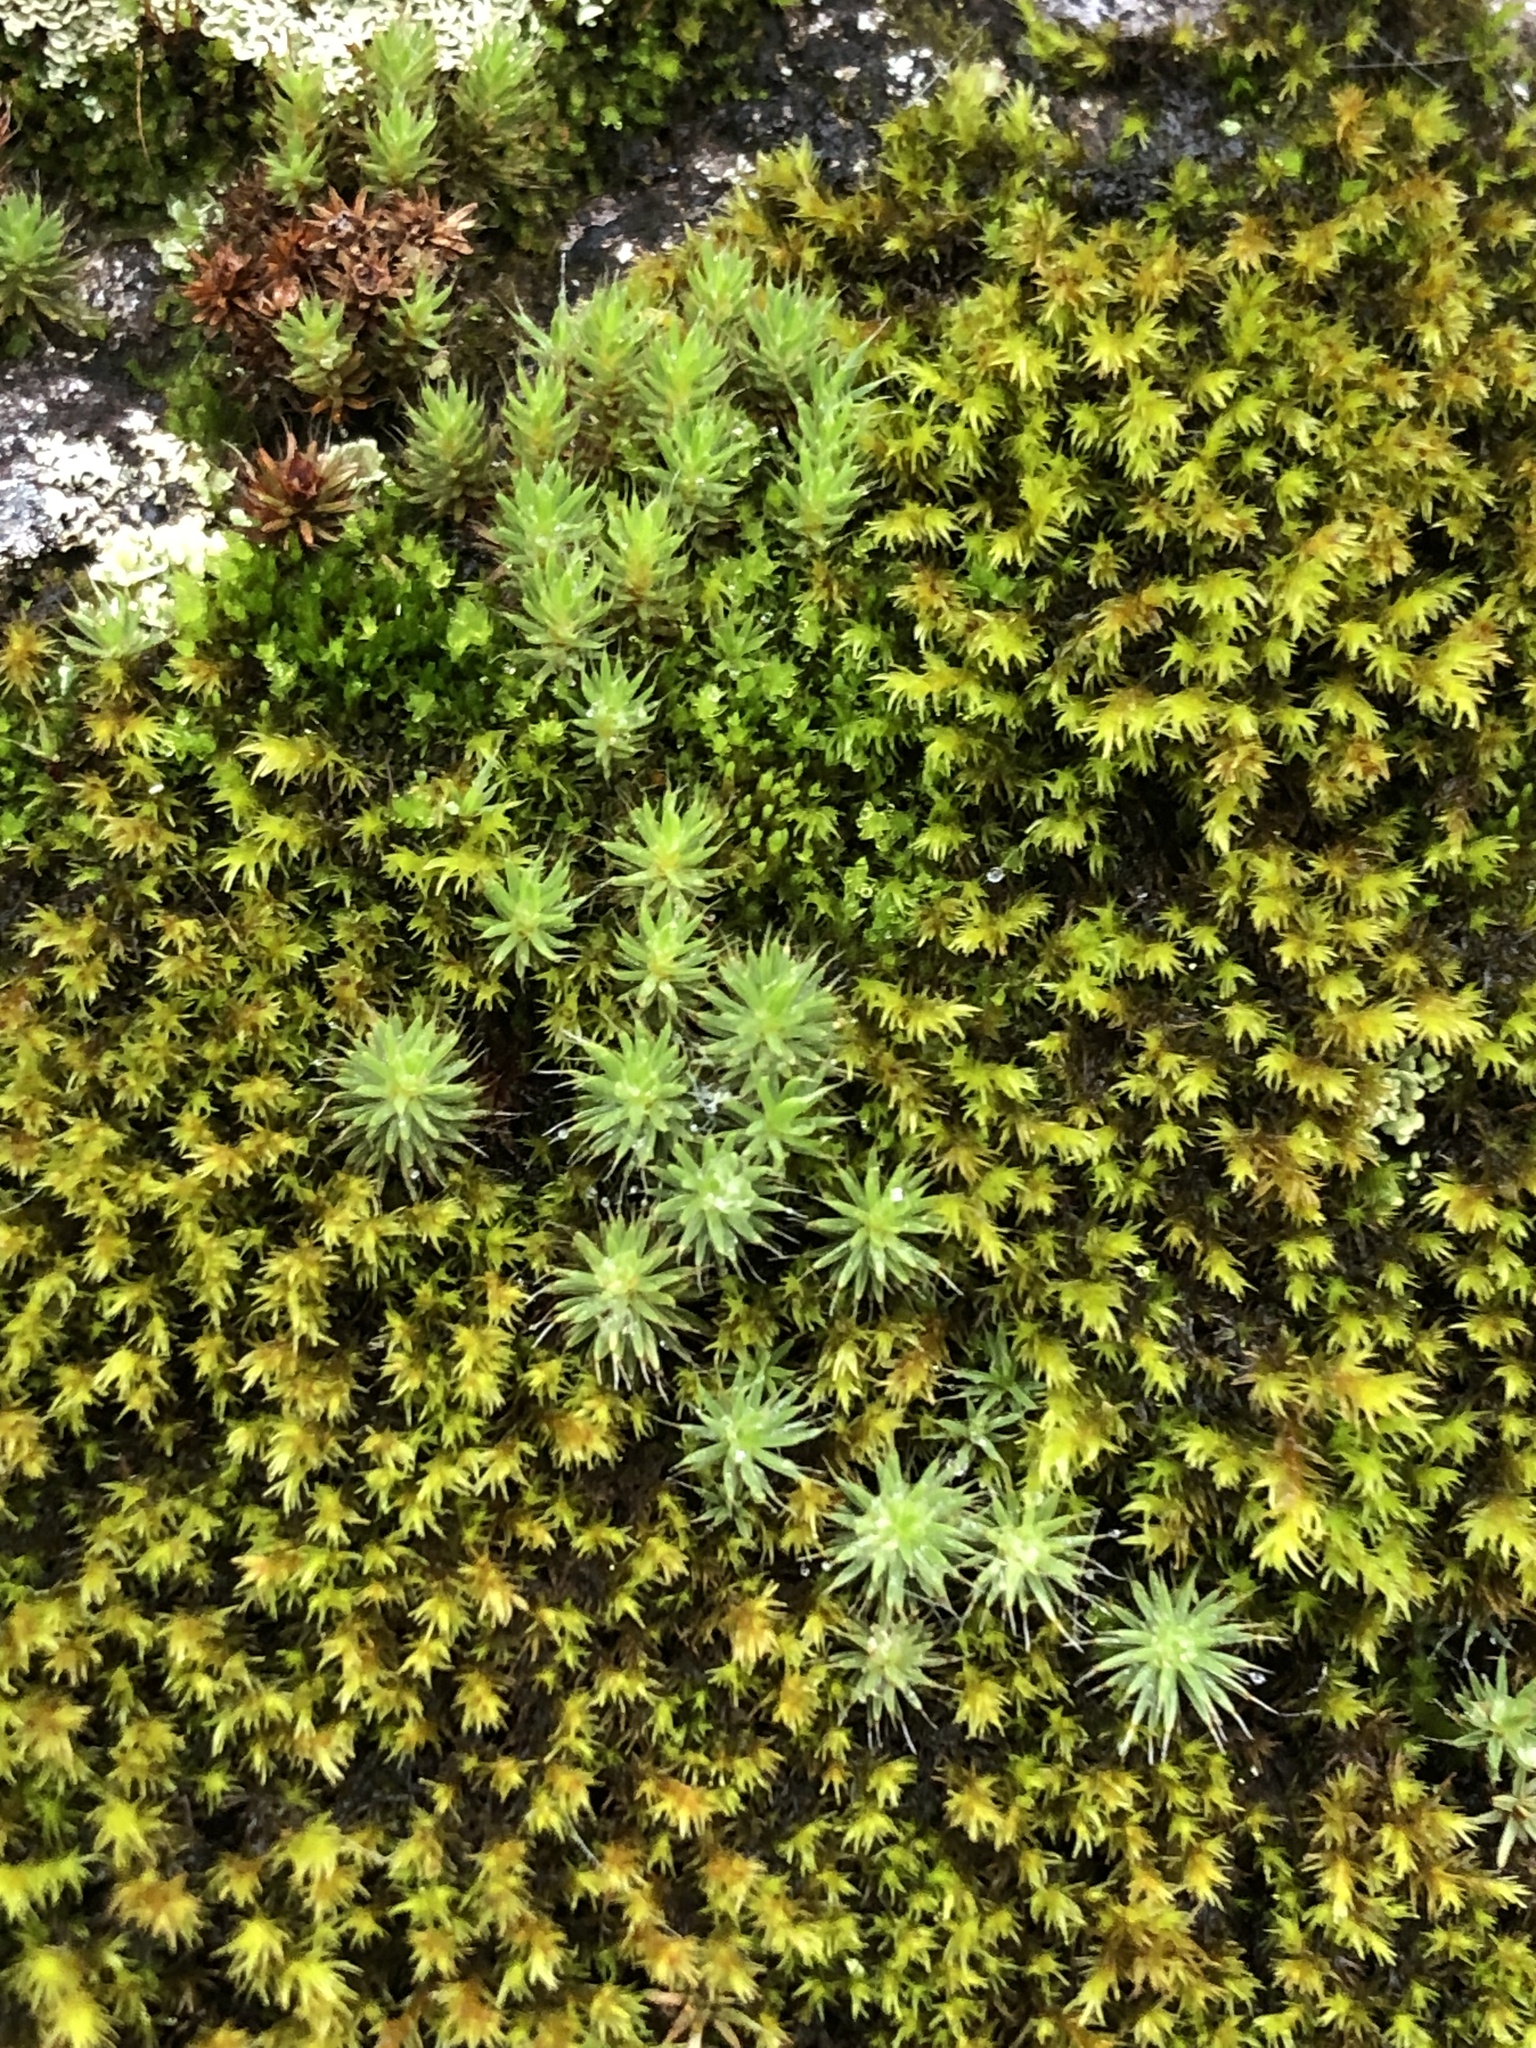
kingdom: Plantae
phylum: Bryophyta
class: Polytrichopsida
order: Polytrichales
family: Polytrichaceae
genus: Polytrichum
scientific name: Polytrichum piliferum
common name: Bristly haircap
